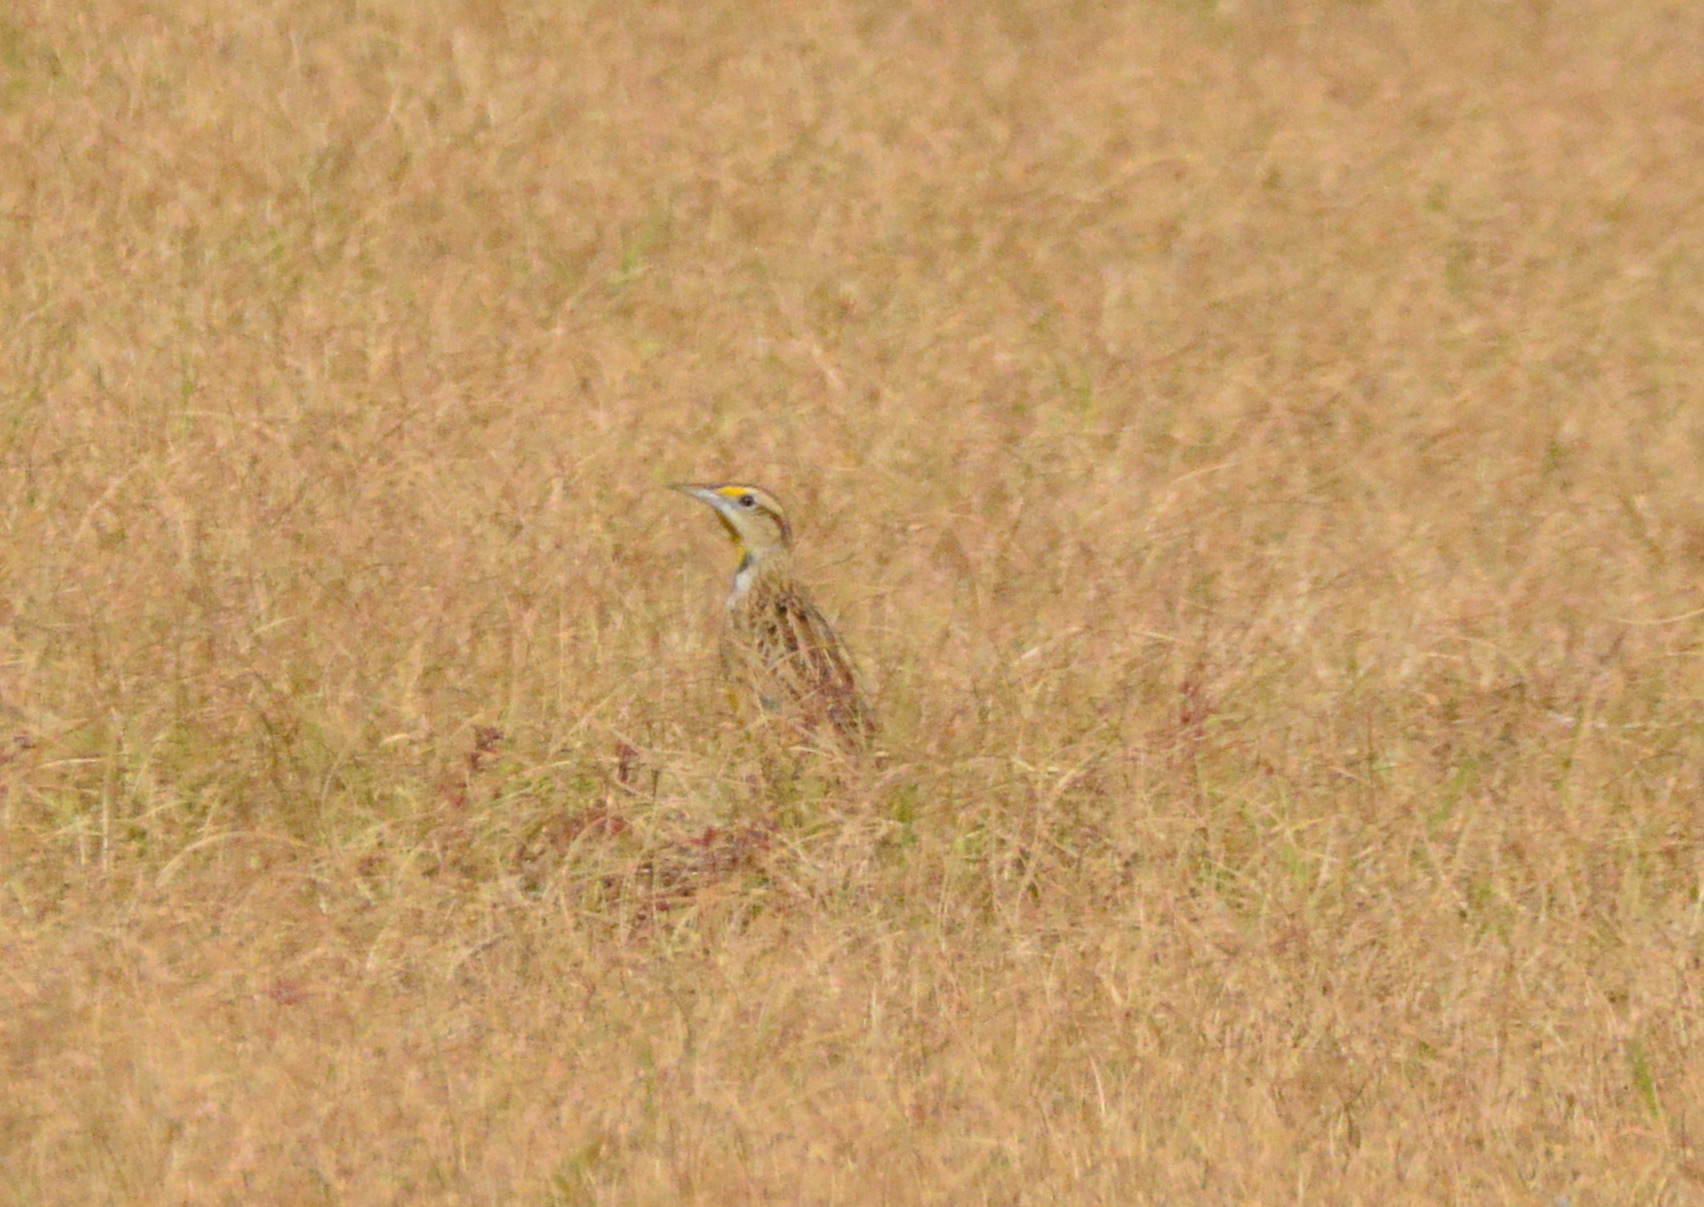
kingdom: Animalia
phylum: Chordata
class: Aves
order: Passeriformes
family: Icteridae
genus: Sturnella
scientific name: Sturnella magna
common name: Eastern meadowlark
